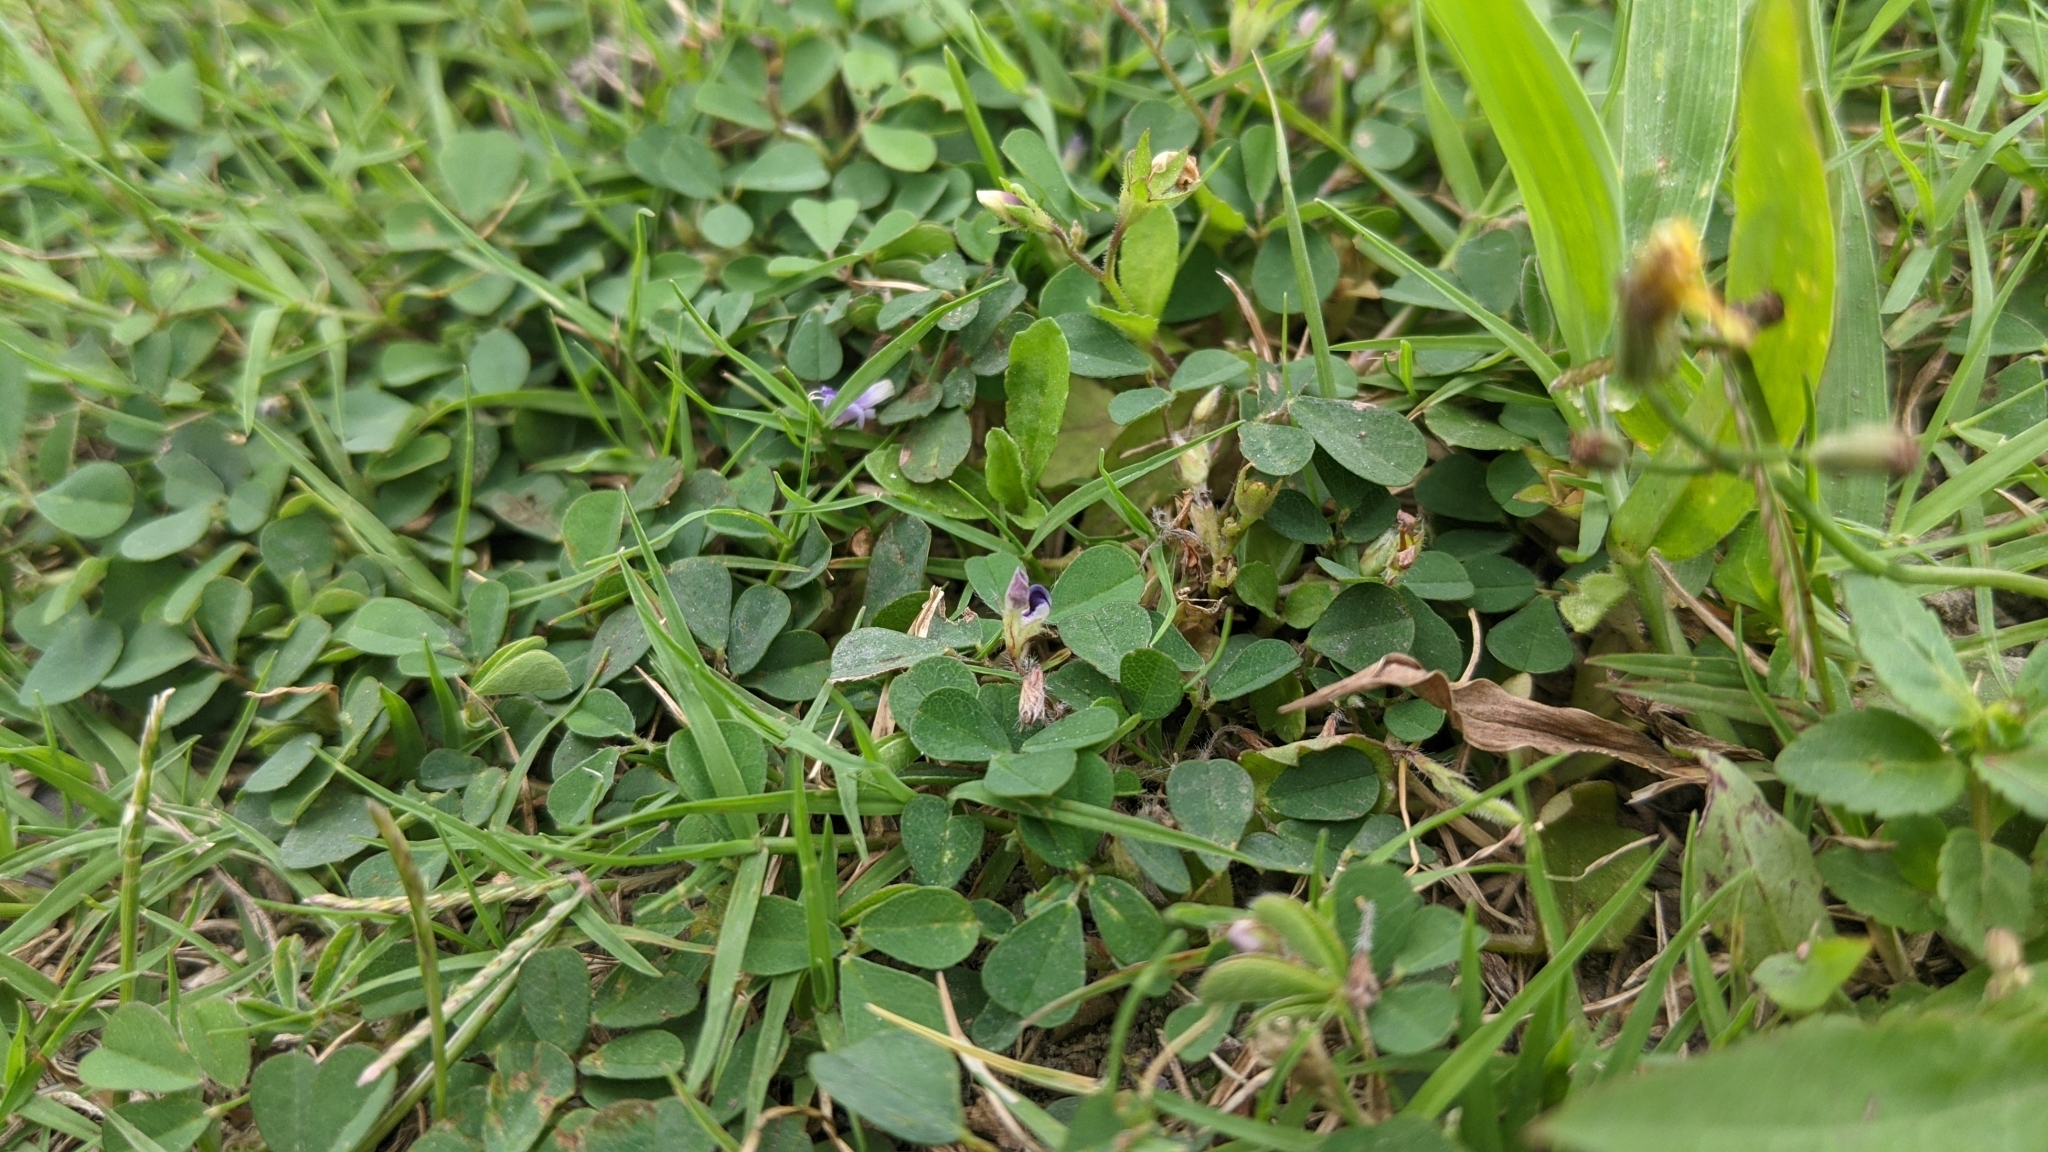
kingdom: Plantae
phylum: Tracheophyta
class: Magnoliopsida
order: Fabales
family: Fabaceae
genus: Grona
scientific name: Grona triflora
